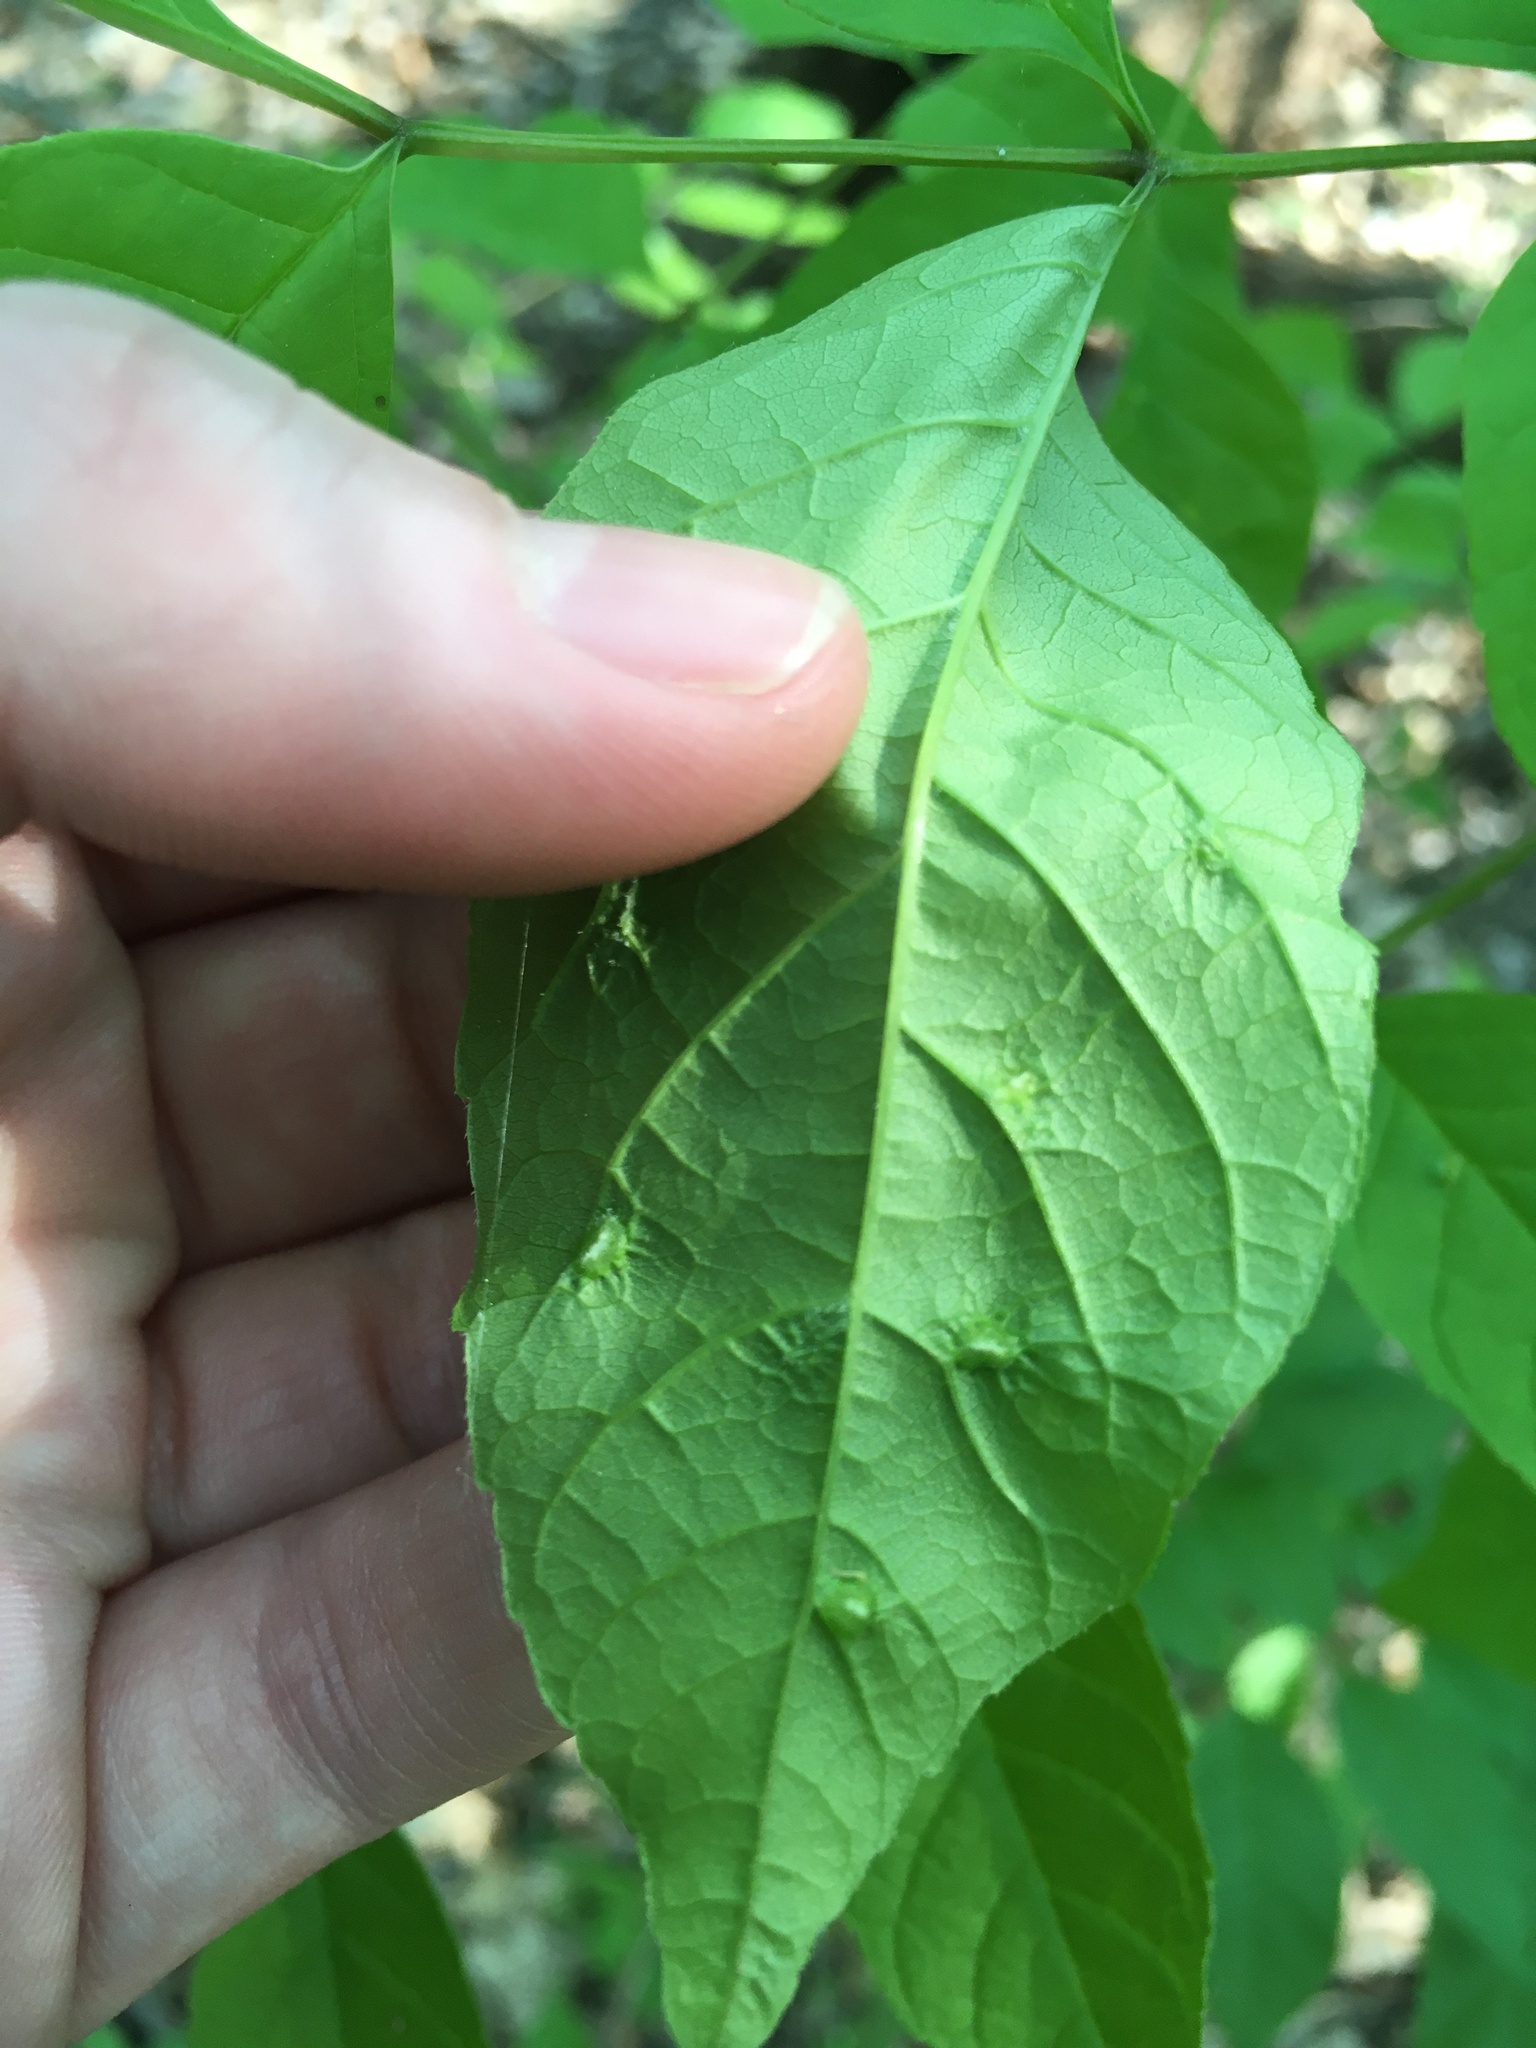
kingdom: Animalia
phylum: Arthropoda
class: Arachnida
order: Trombidiformes
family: Eriophyidae
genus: Aceria
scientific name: Aceria fraxinicola
